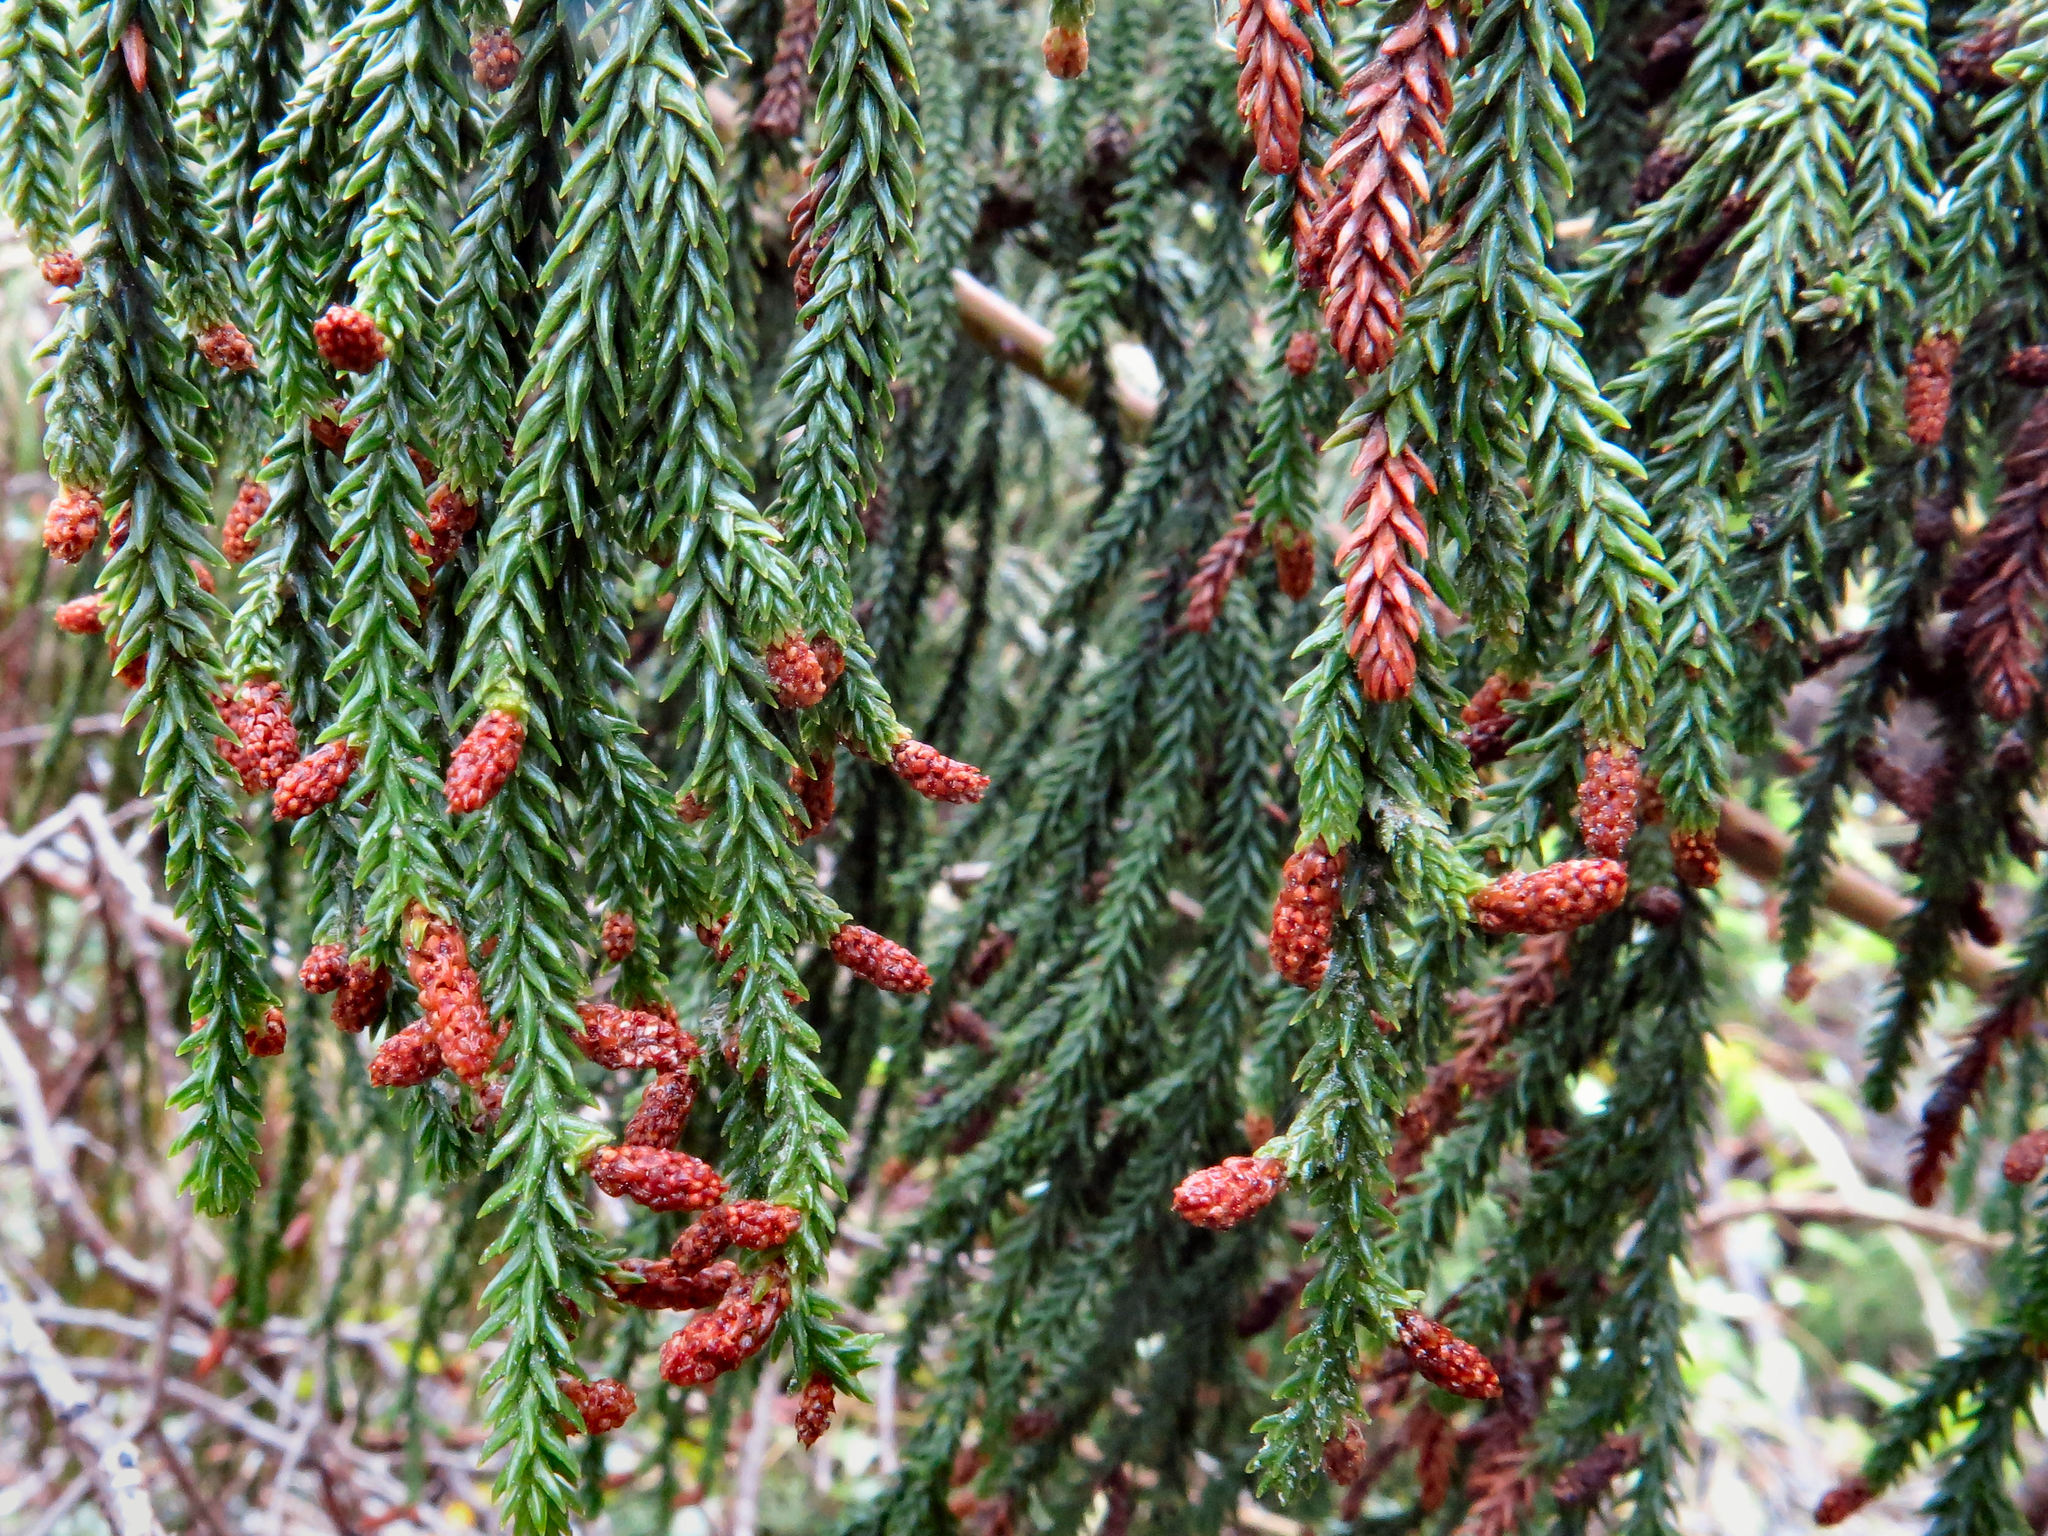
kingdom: Plantae
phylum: Tracheophyta
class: Pinopsida
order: Pinales
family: Podocarpaceae
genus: Dacrydium
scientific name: Dacrydium cupressinum
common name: Red pine
